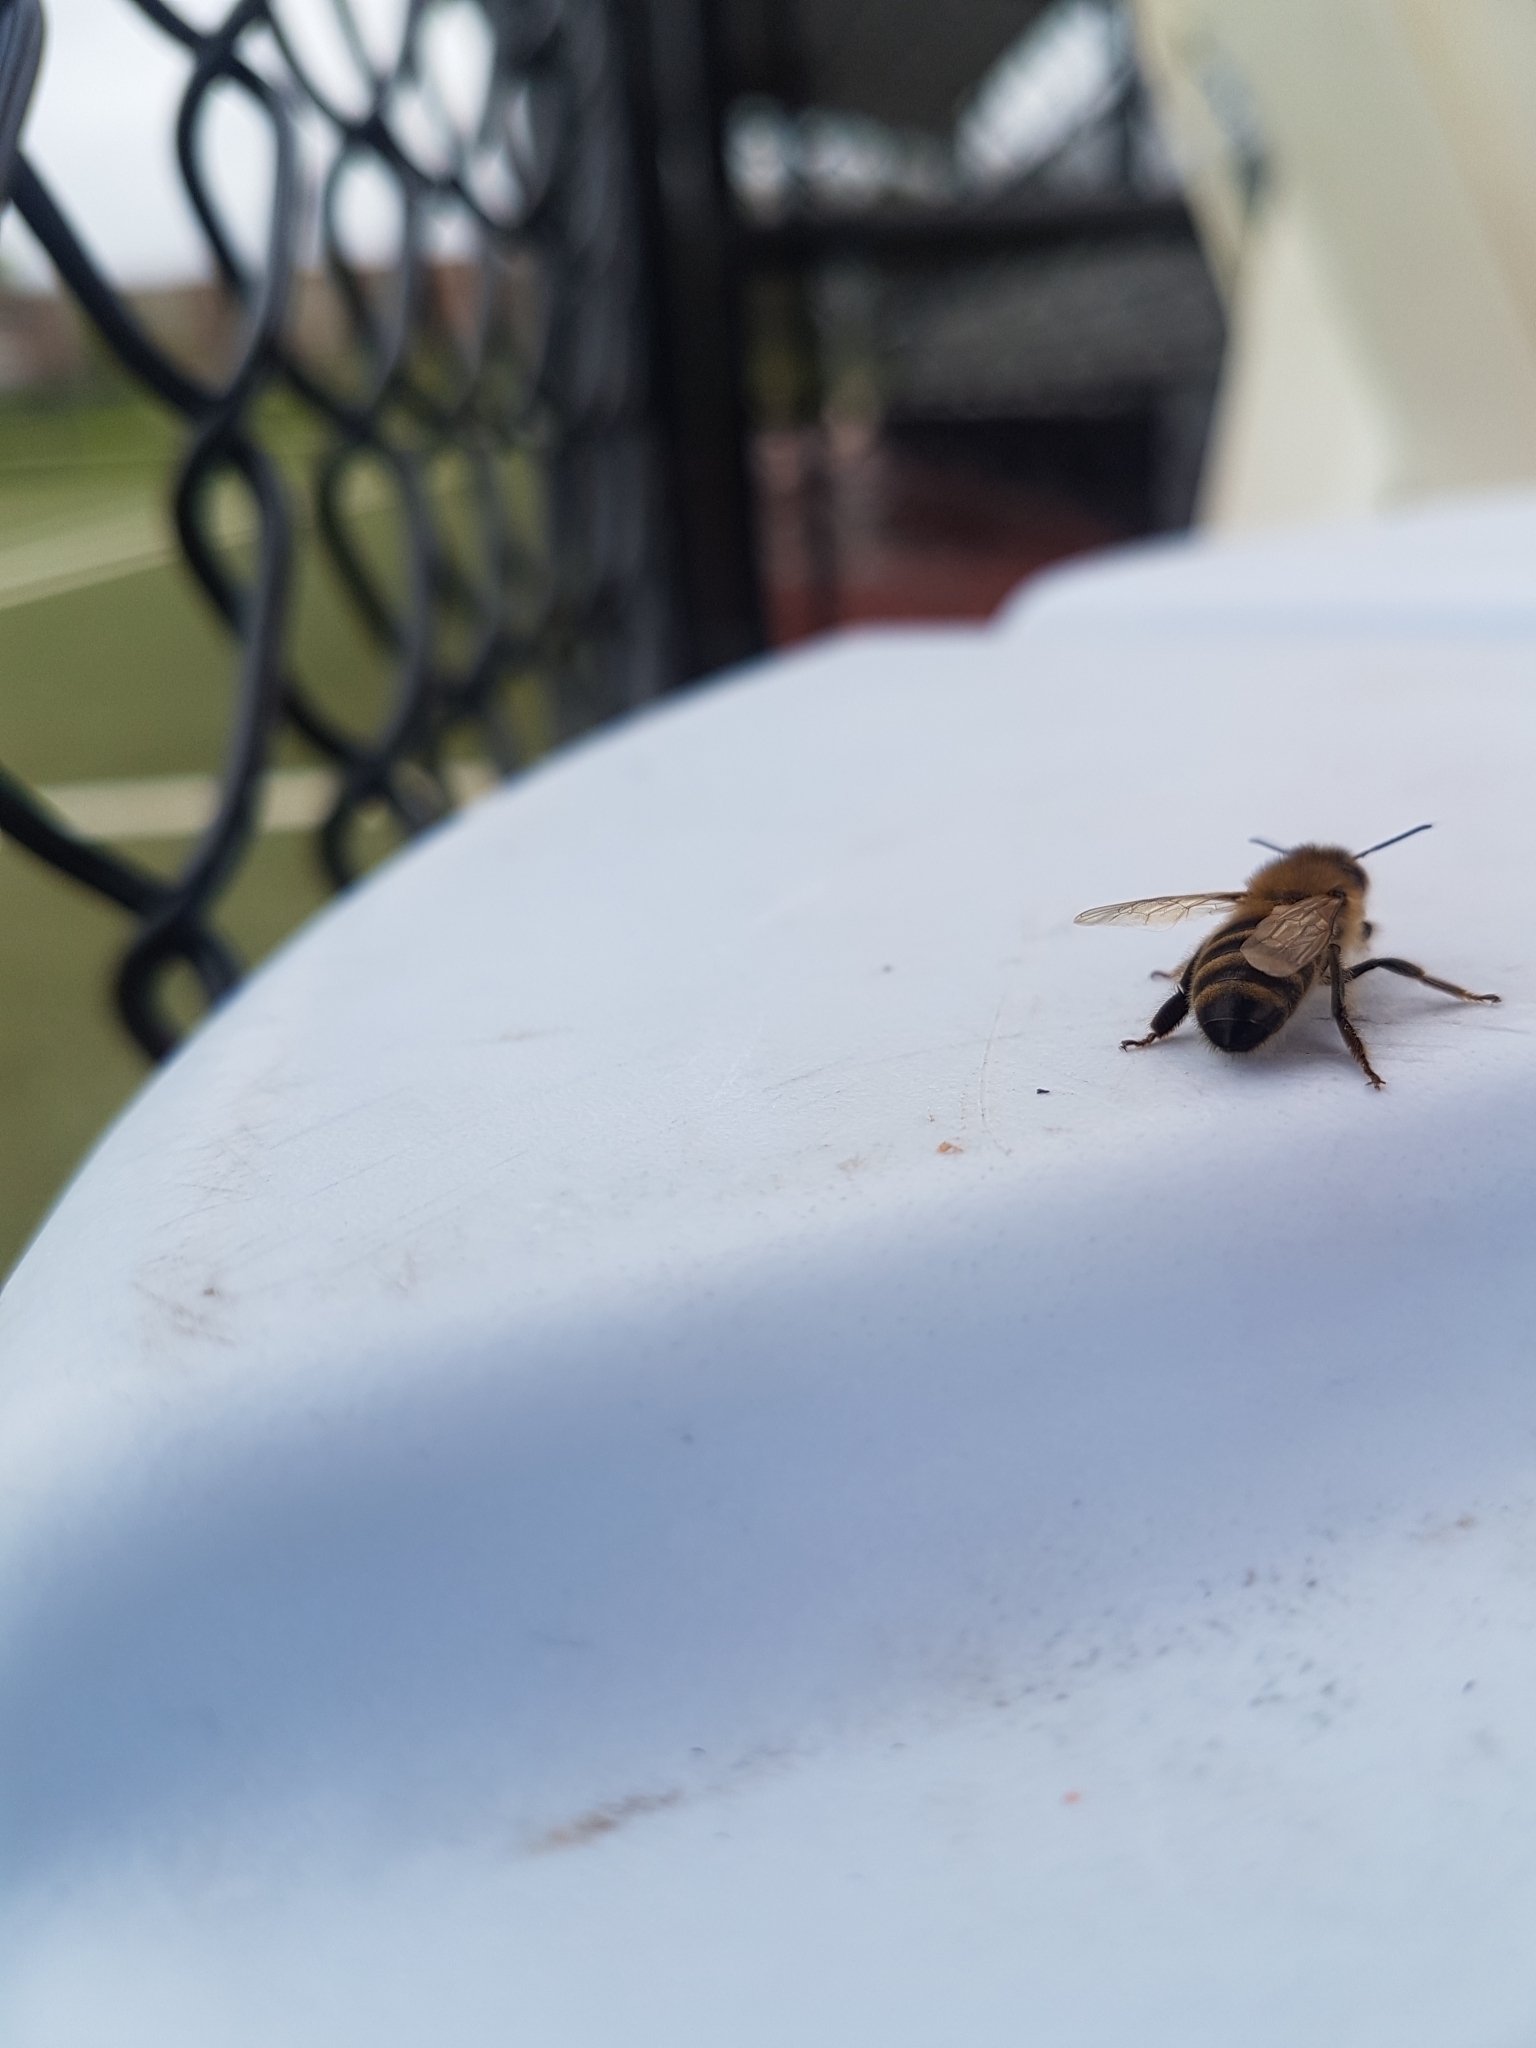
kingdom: Animalia
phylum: Arthropoda
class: Insecta
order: Hymenoptera
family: Apidae
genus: Apis
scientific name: Apis mellifera
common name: Honey bee
